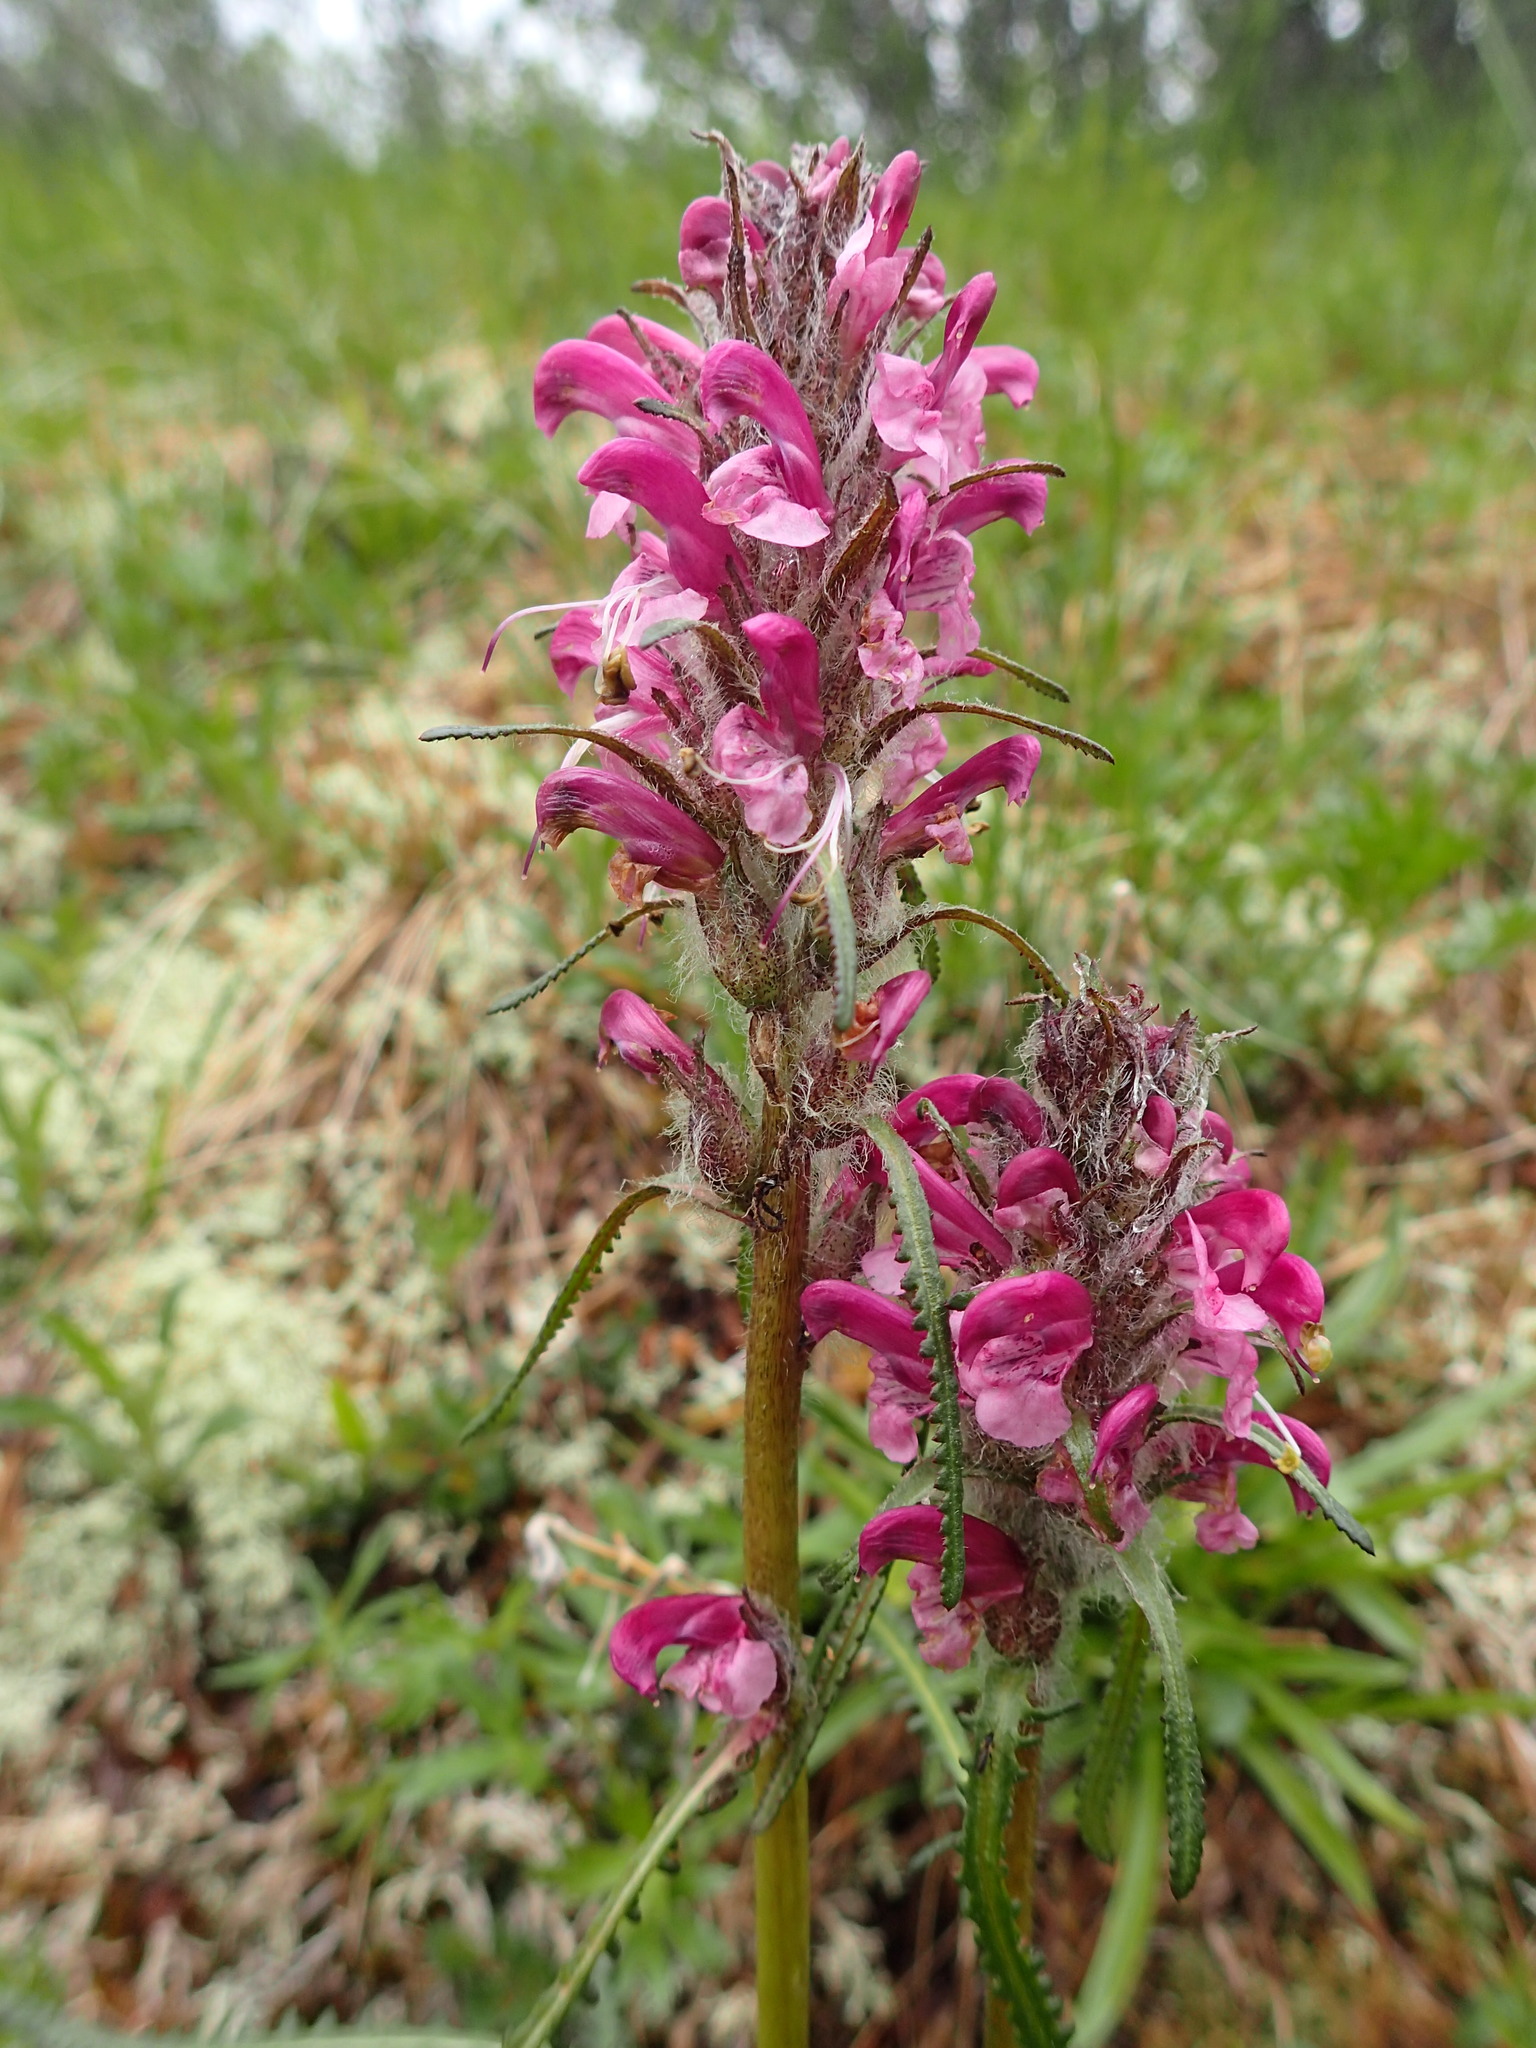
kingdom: Plantae
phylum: Tracheophyta
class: Magnoliopsida
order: Lamiales
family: Orobanchaceae
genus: Pedicularis
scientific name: Pedicularis sudetica
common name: Sudeten lousewort
